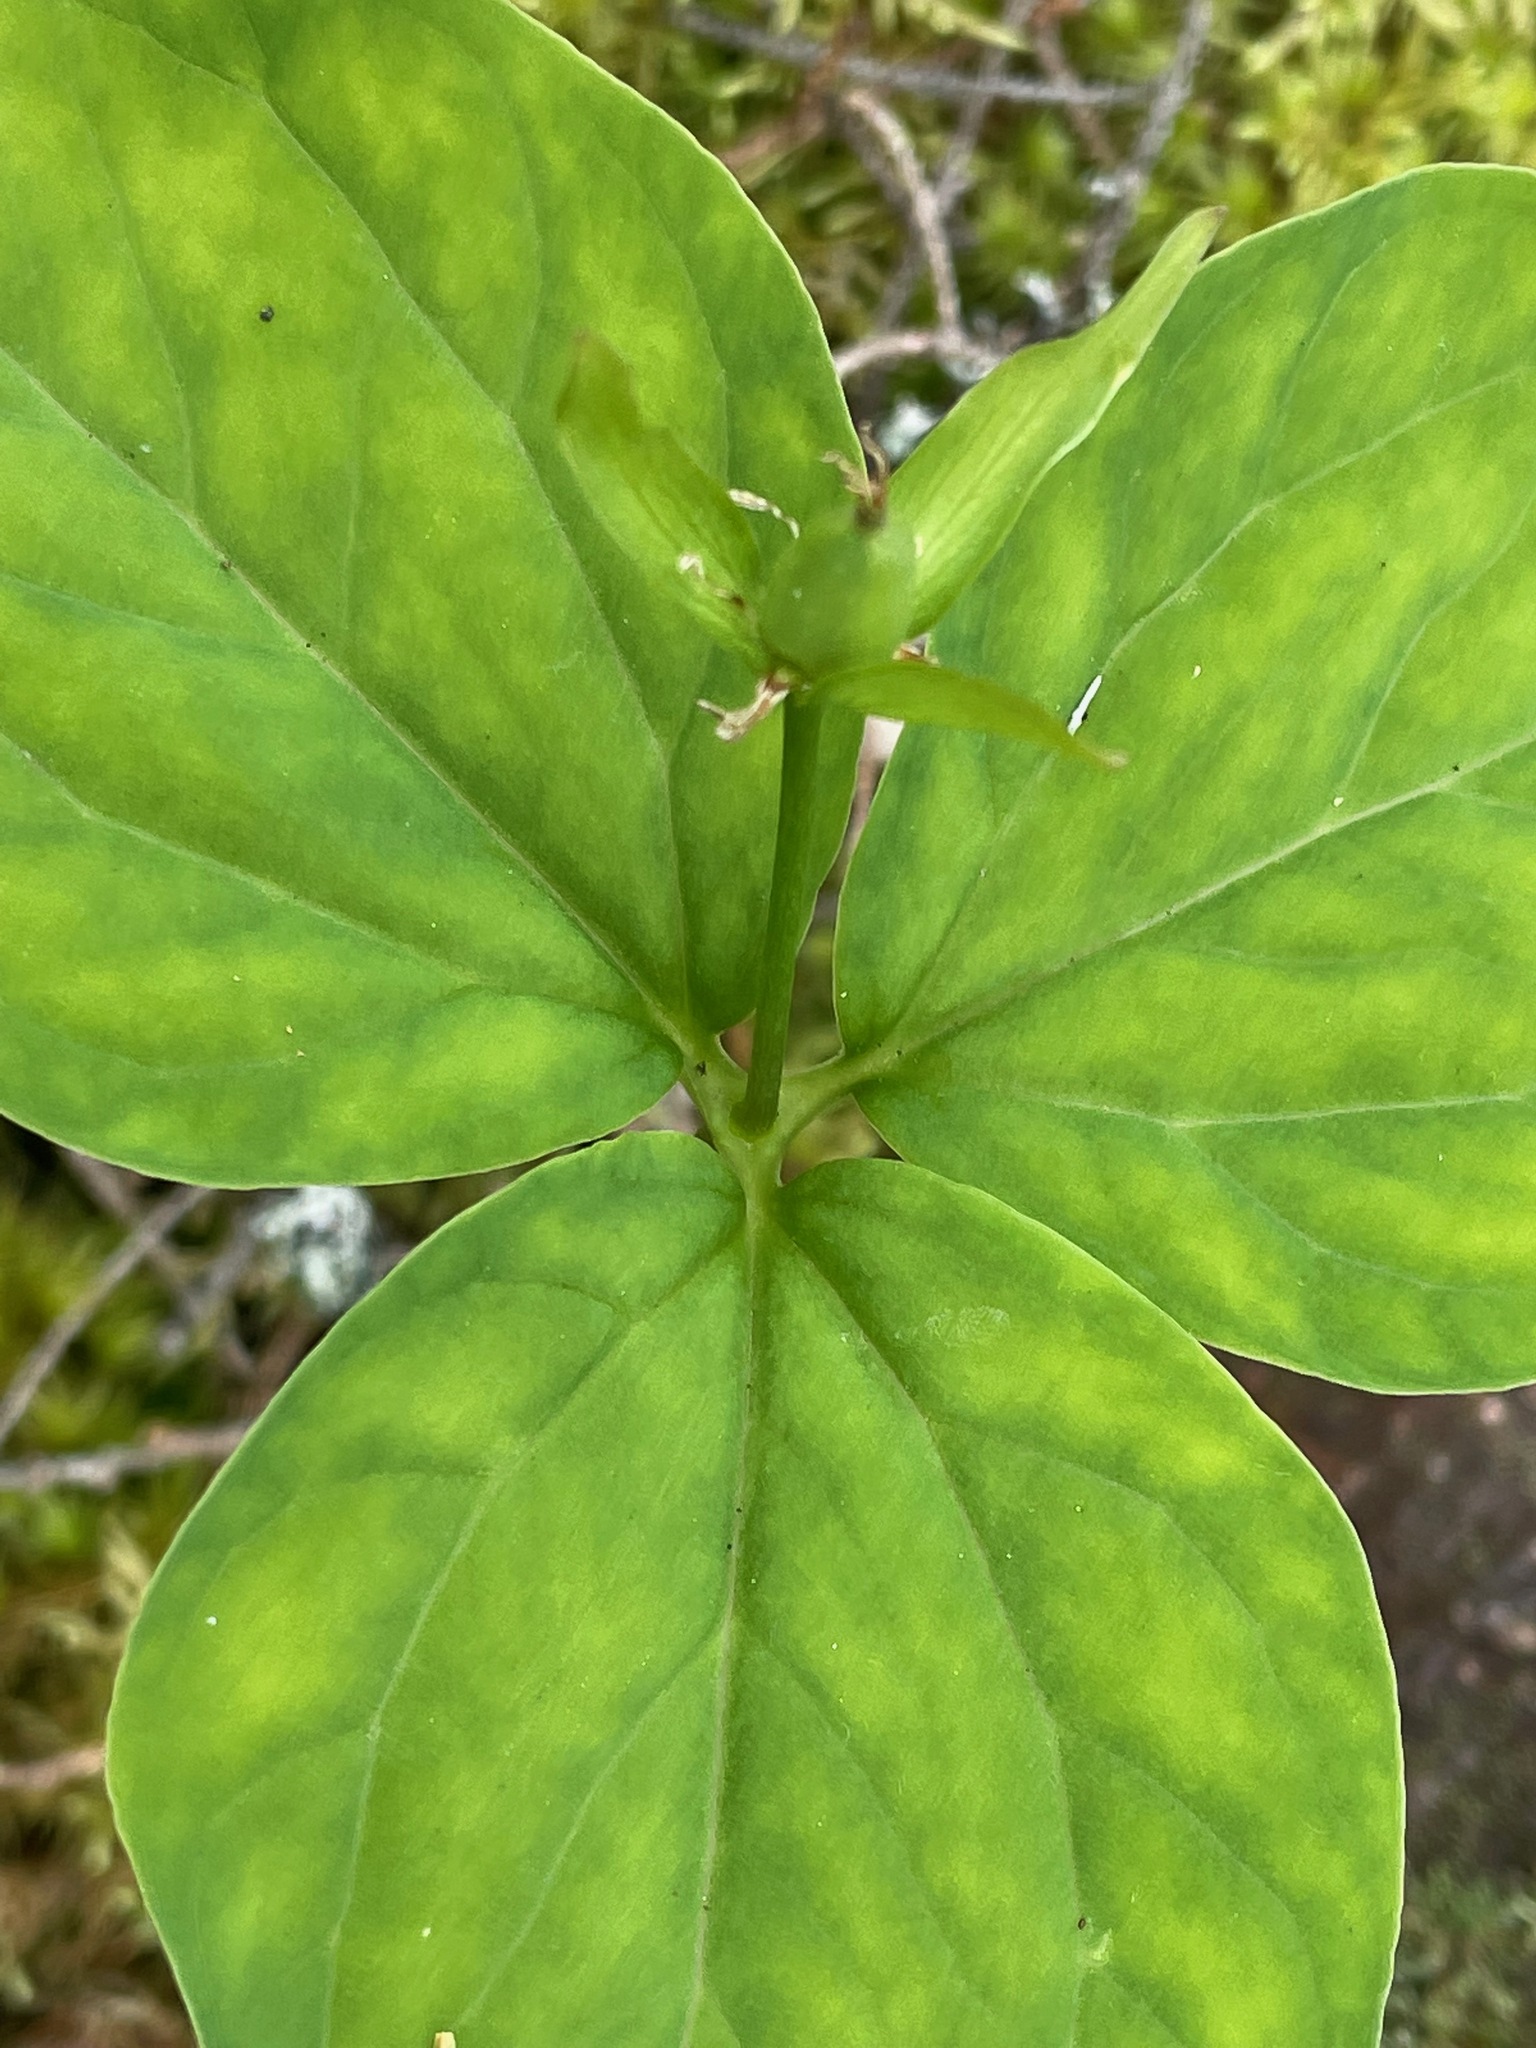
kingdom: Plantae
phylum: Tracheophyta
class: Liliopsida
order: Liliales
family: Melanthiaceae
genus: Trillium
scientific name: Trillium undulatum
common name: Paint trillium
